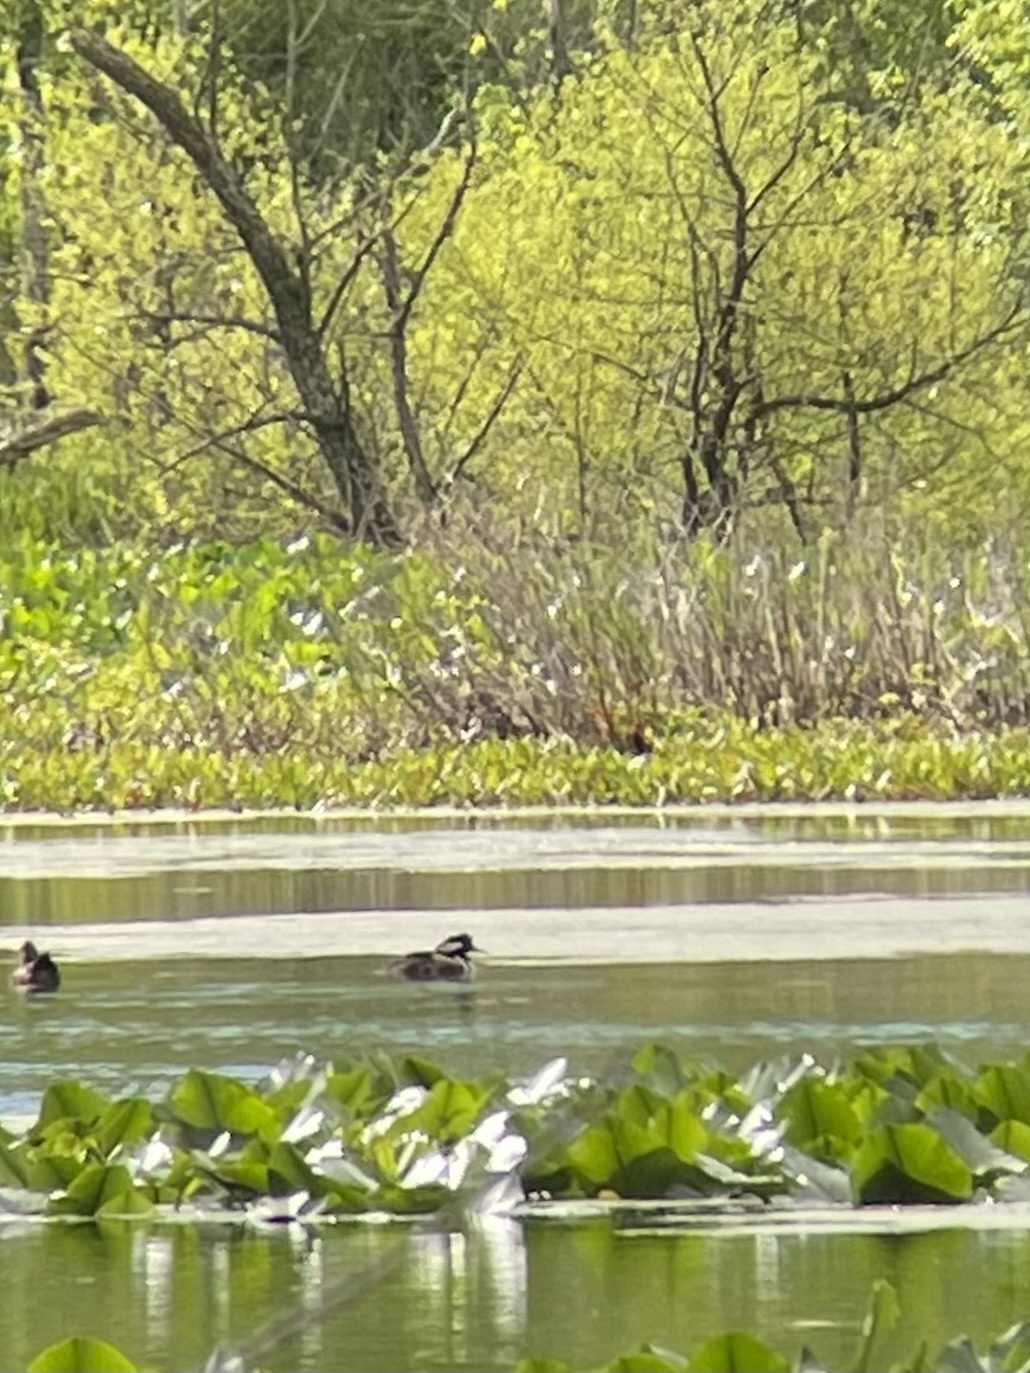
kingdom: Animalia
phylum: Chordata
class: Aves
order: Anseriformes
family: Anatidae
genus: Lophodytes
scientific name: Lophodytes cucullatus
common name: Hooded merganser
